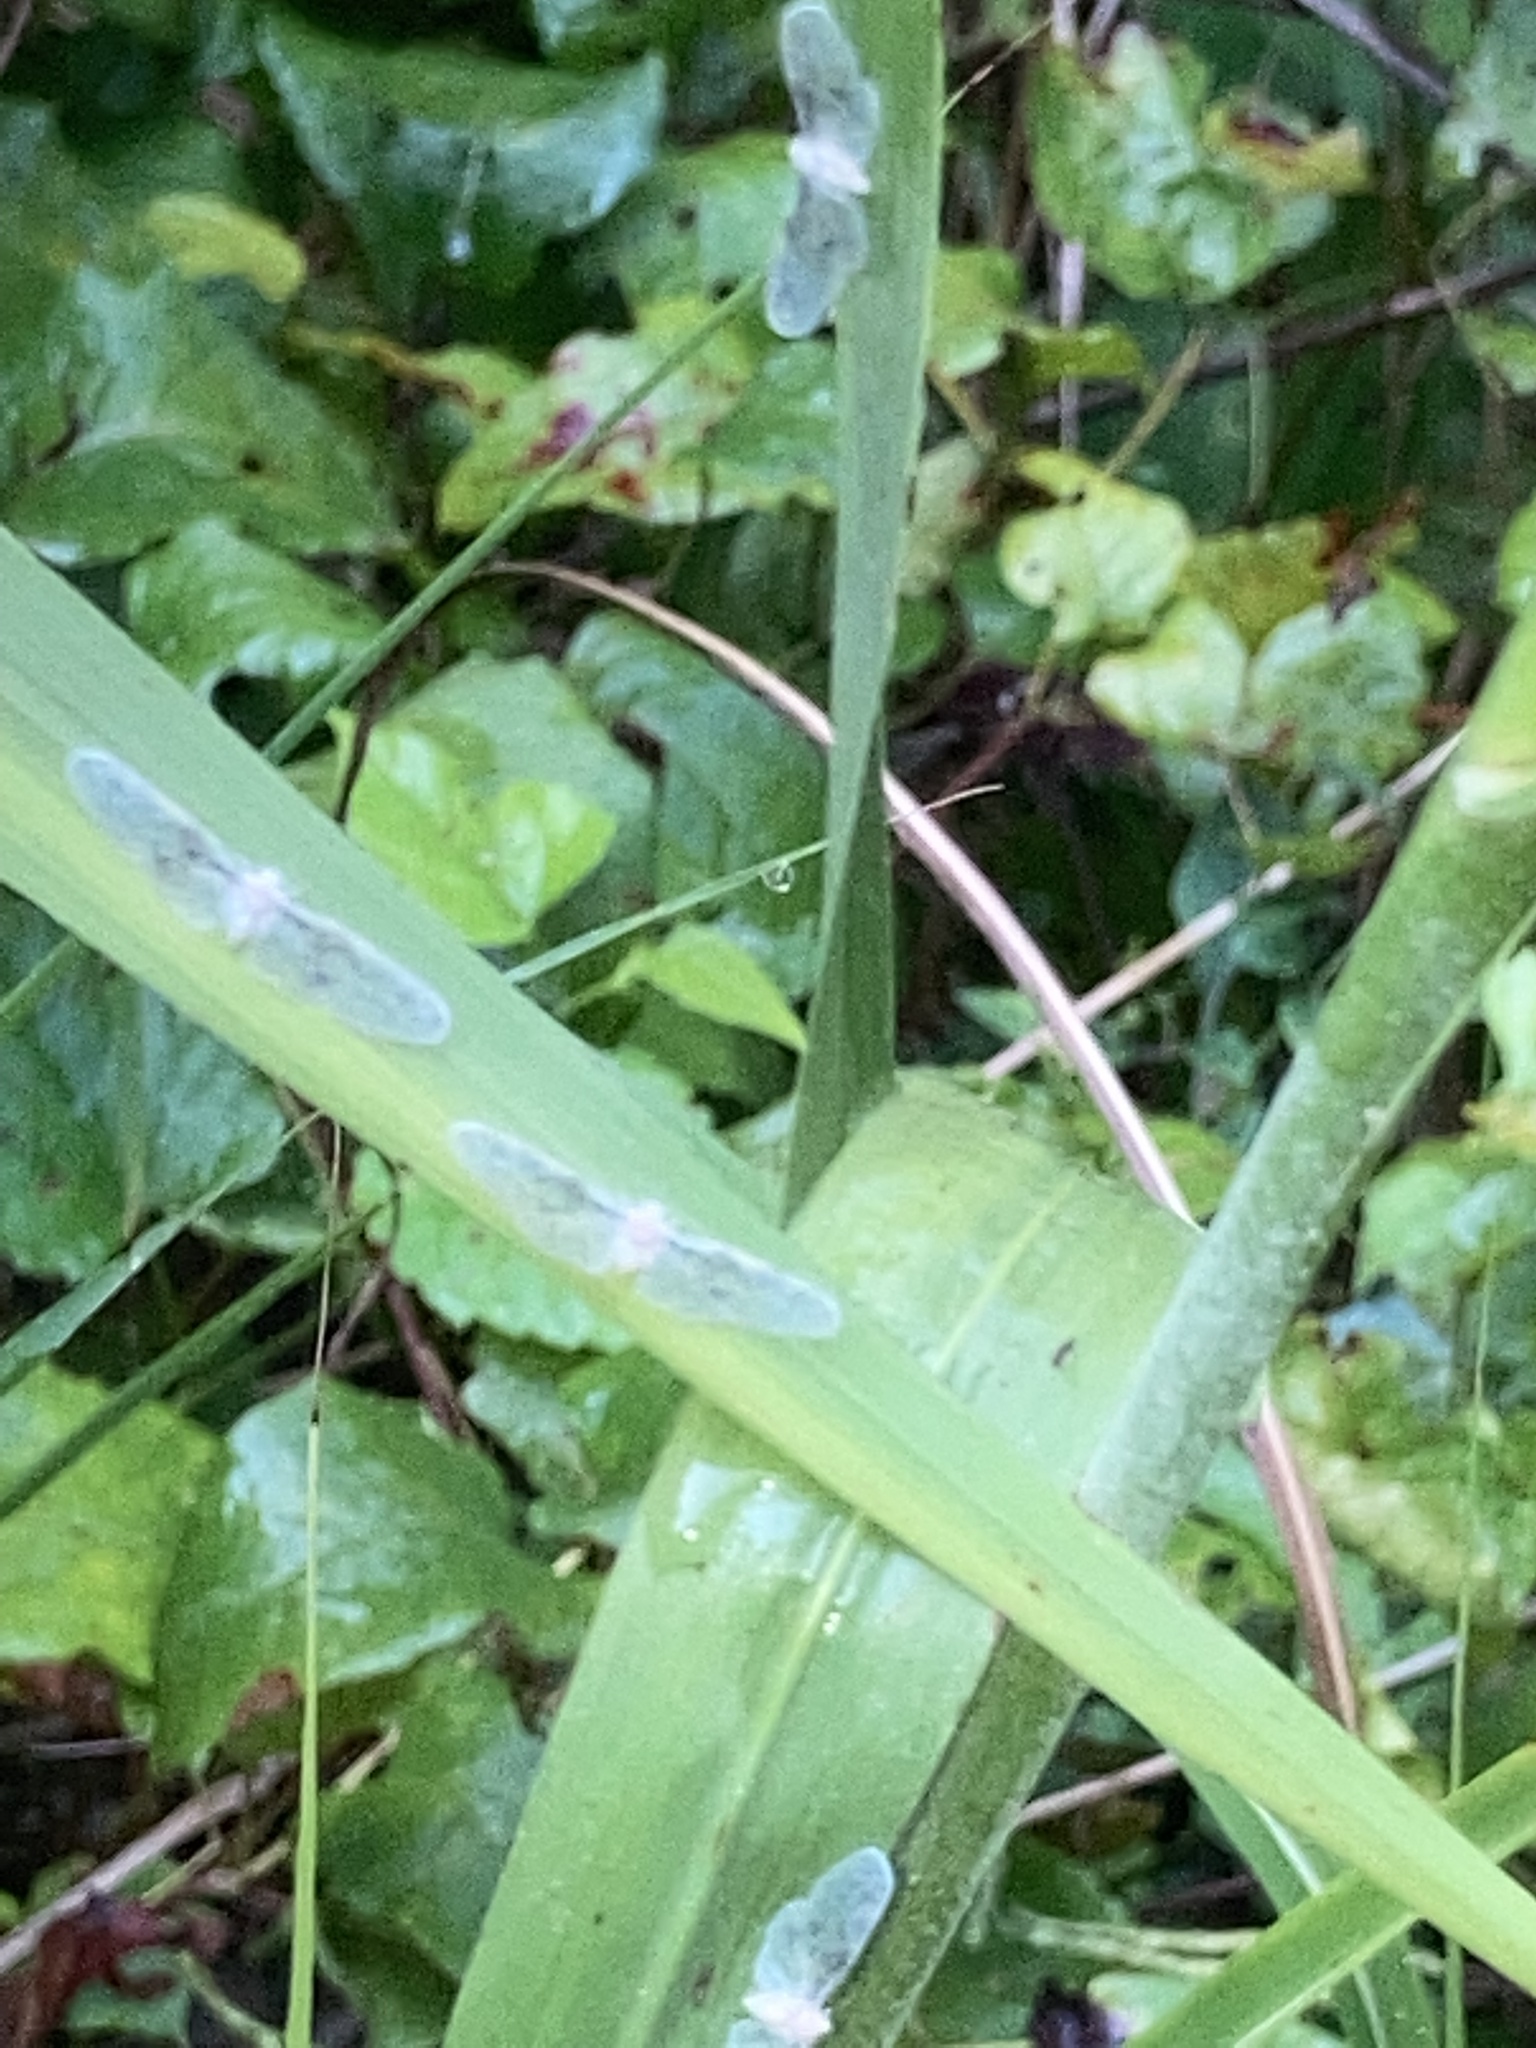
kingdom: Animalia
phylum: Arthropoda
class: Insecta
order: Hemiptera
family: Derbidae
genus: Paramysidia
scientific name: Paramysidia mississippiensis
